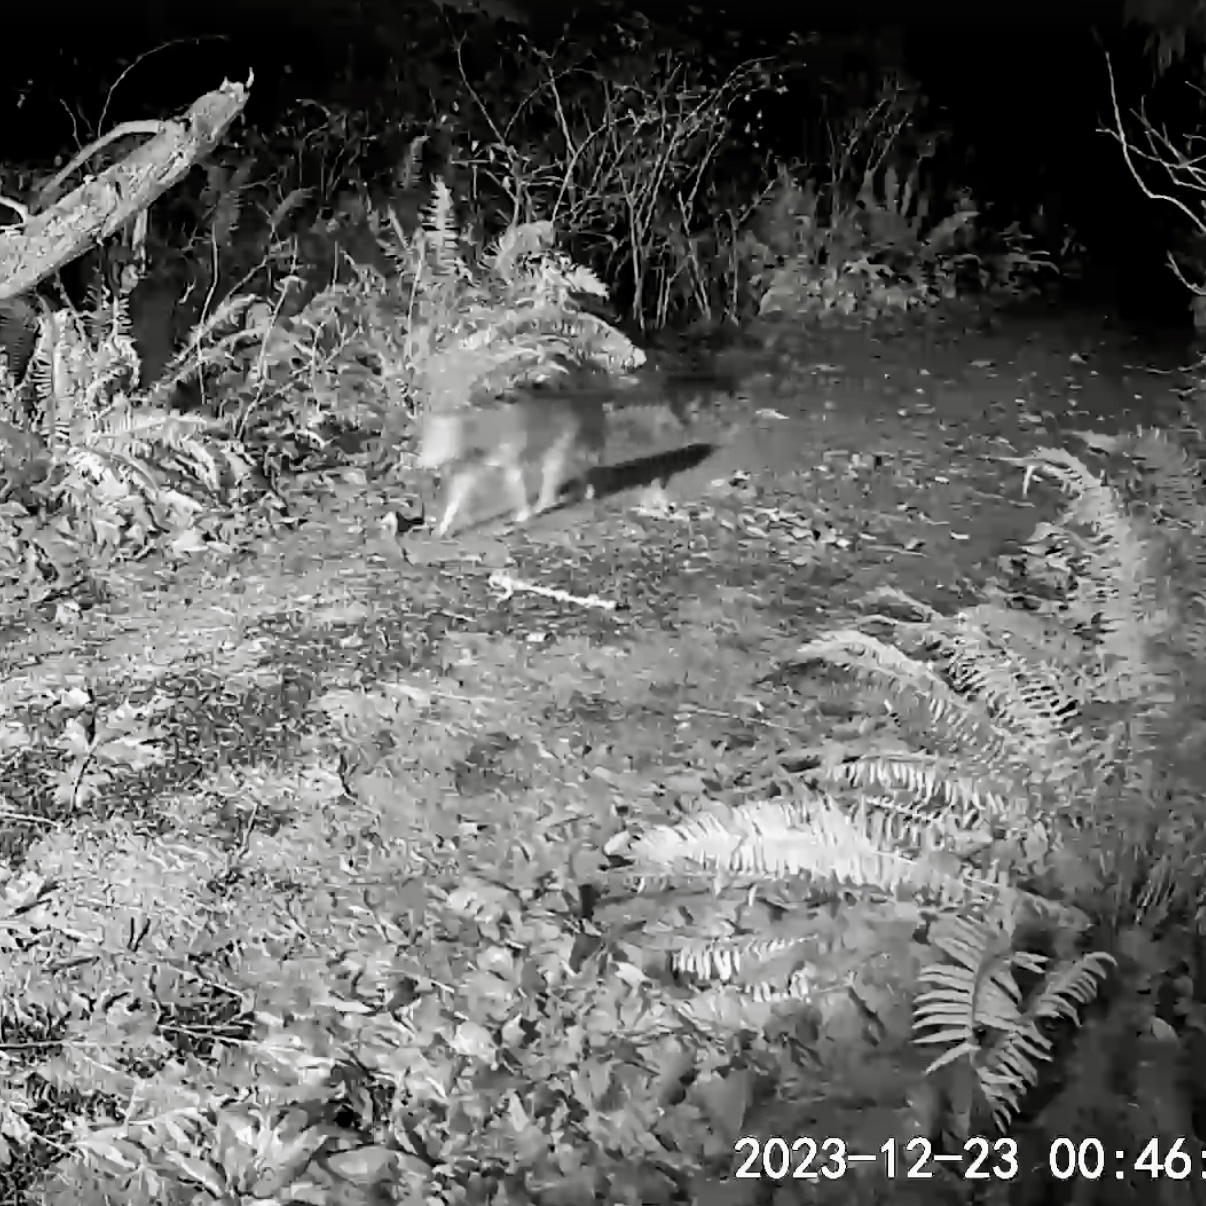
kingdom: Animalia
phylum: Chordata
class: Mammalia
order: Carnivora
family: Canidae
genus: Canis
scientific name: Canis latrans
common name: Coyote
